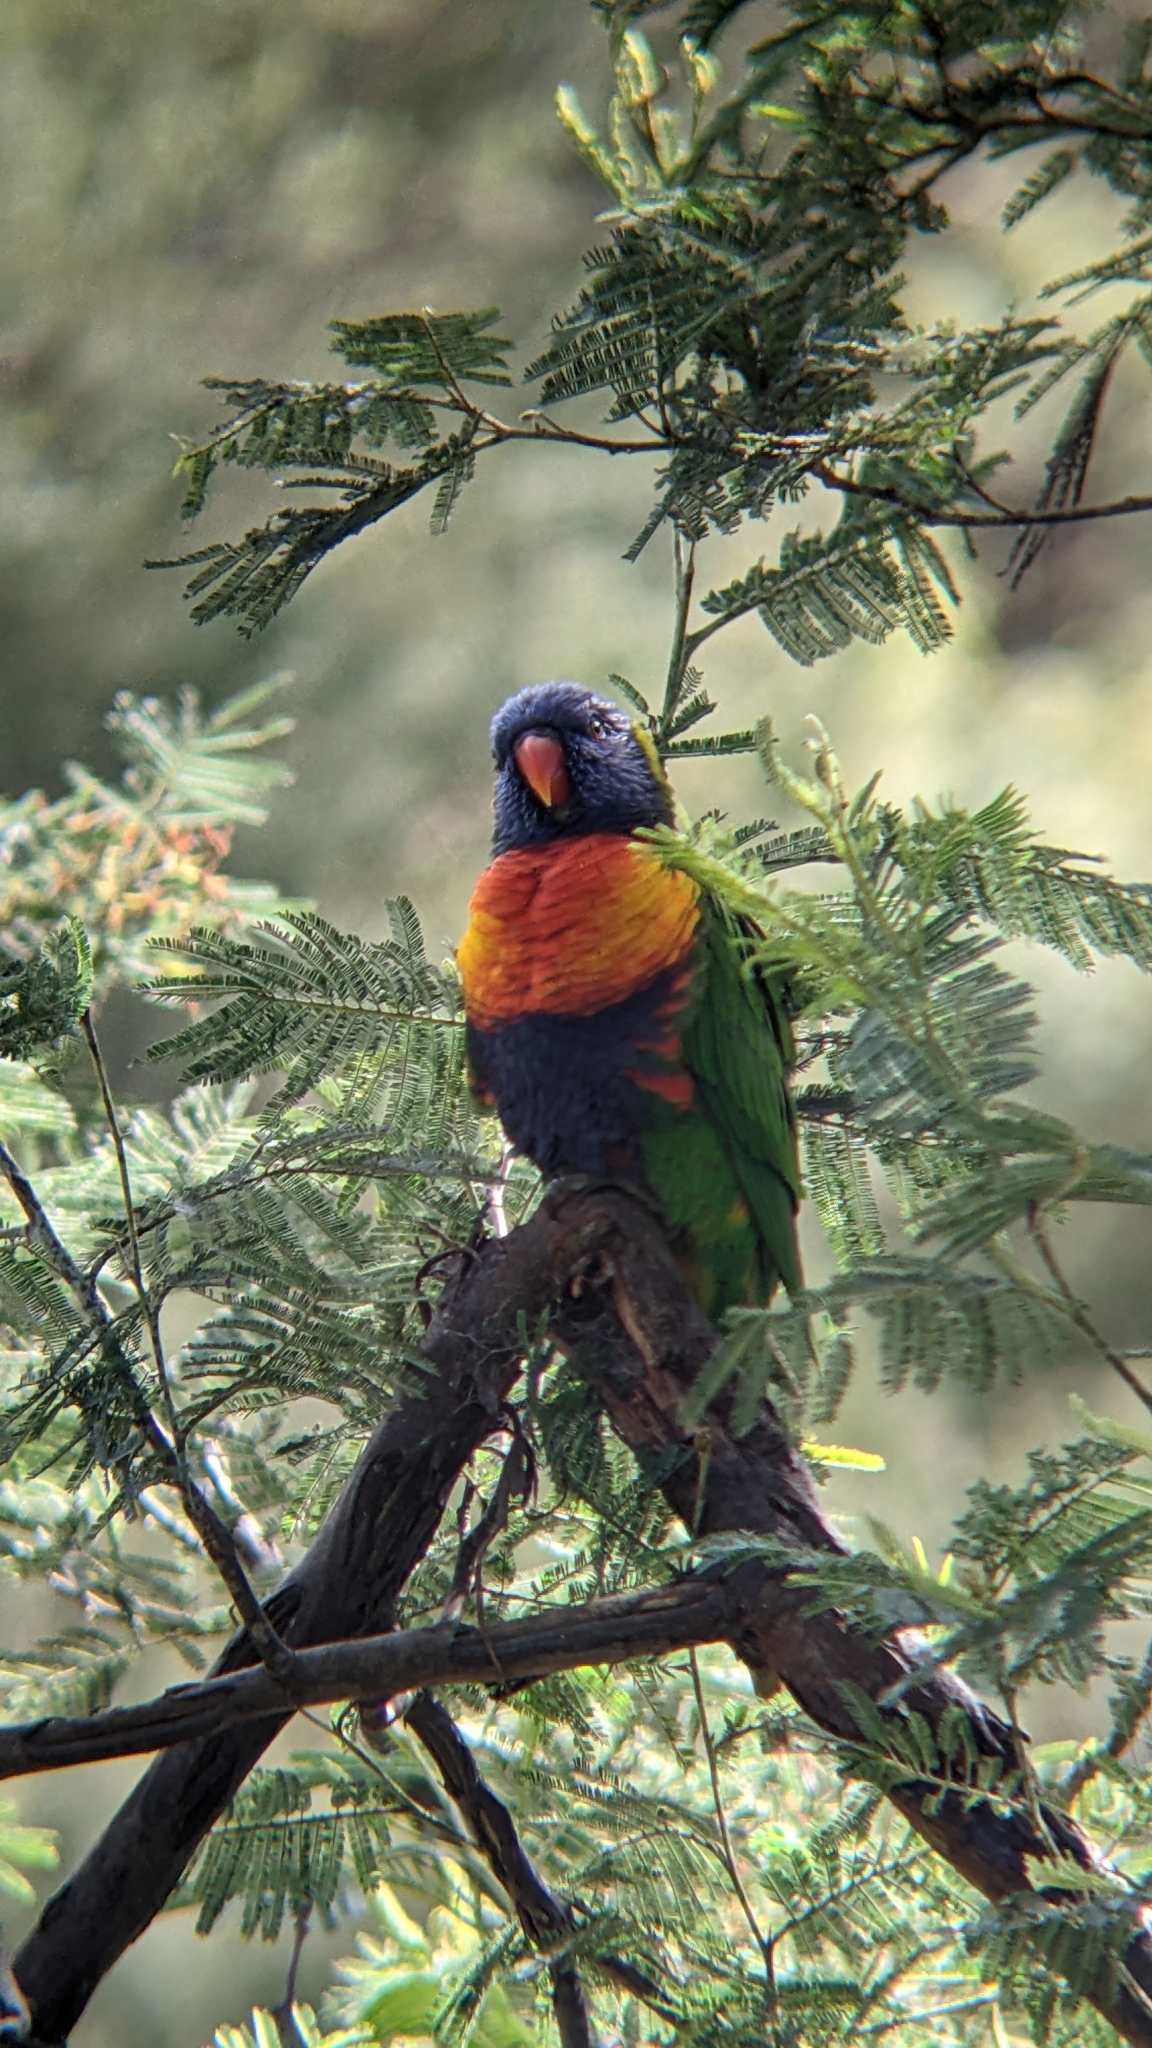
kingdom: Animalia
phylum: Chordata
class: Aves
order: Psittaciformes
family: Psittacidae
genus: Trichoglossus
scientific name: Trichoglossus haematodus
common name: Coconut lorikeet
